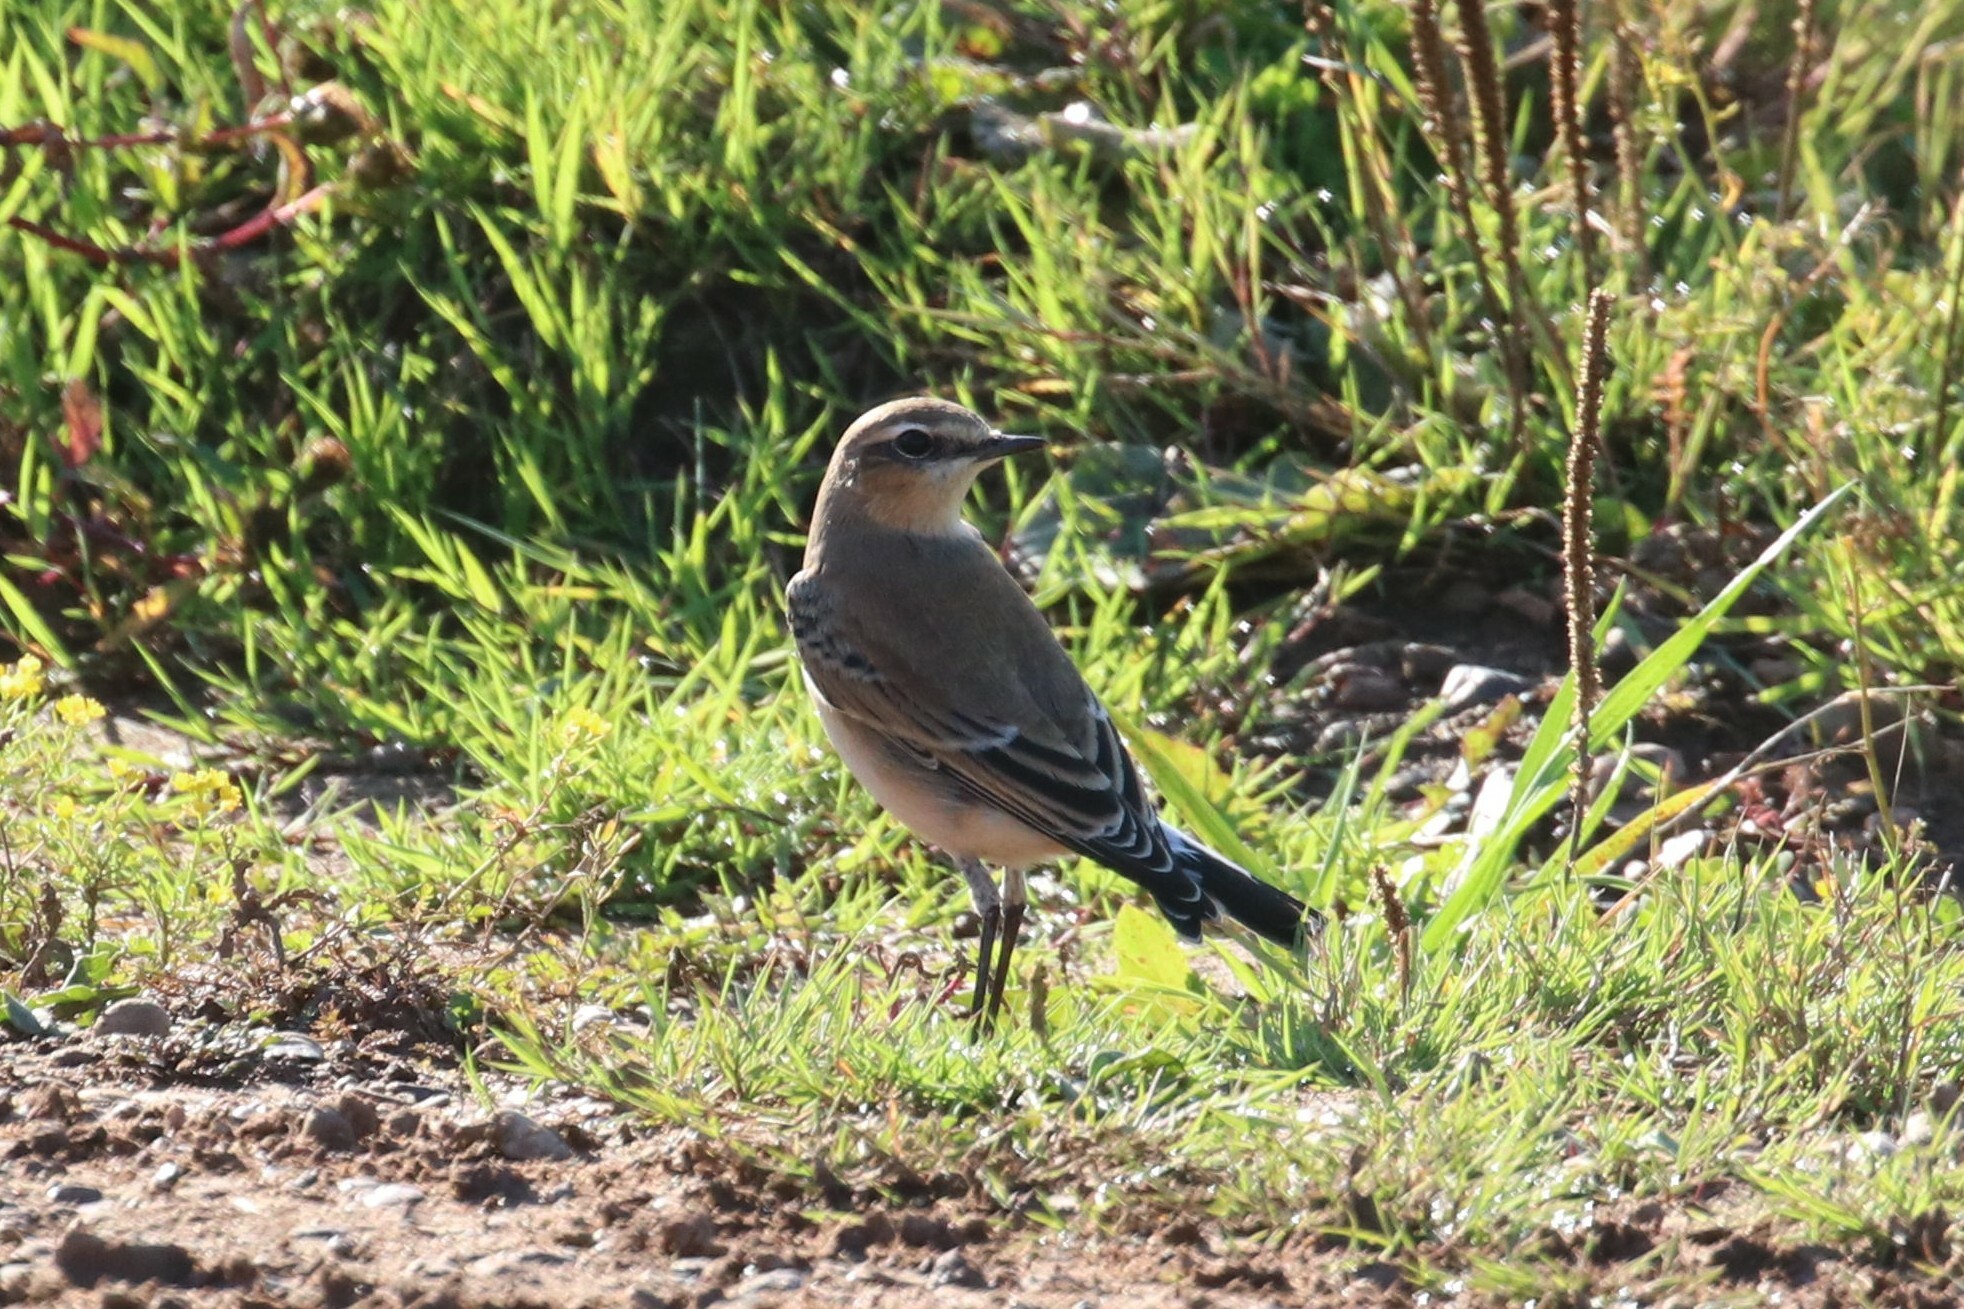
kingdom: Animalia
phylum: Chordata
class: Aves
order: Passeriformes
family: Muscicapidae
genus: Oenanthe
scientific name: Oenanthe oenanthe
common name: Northern wheatear
